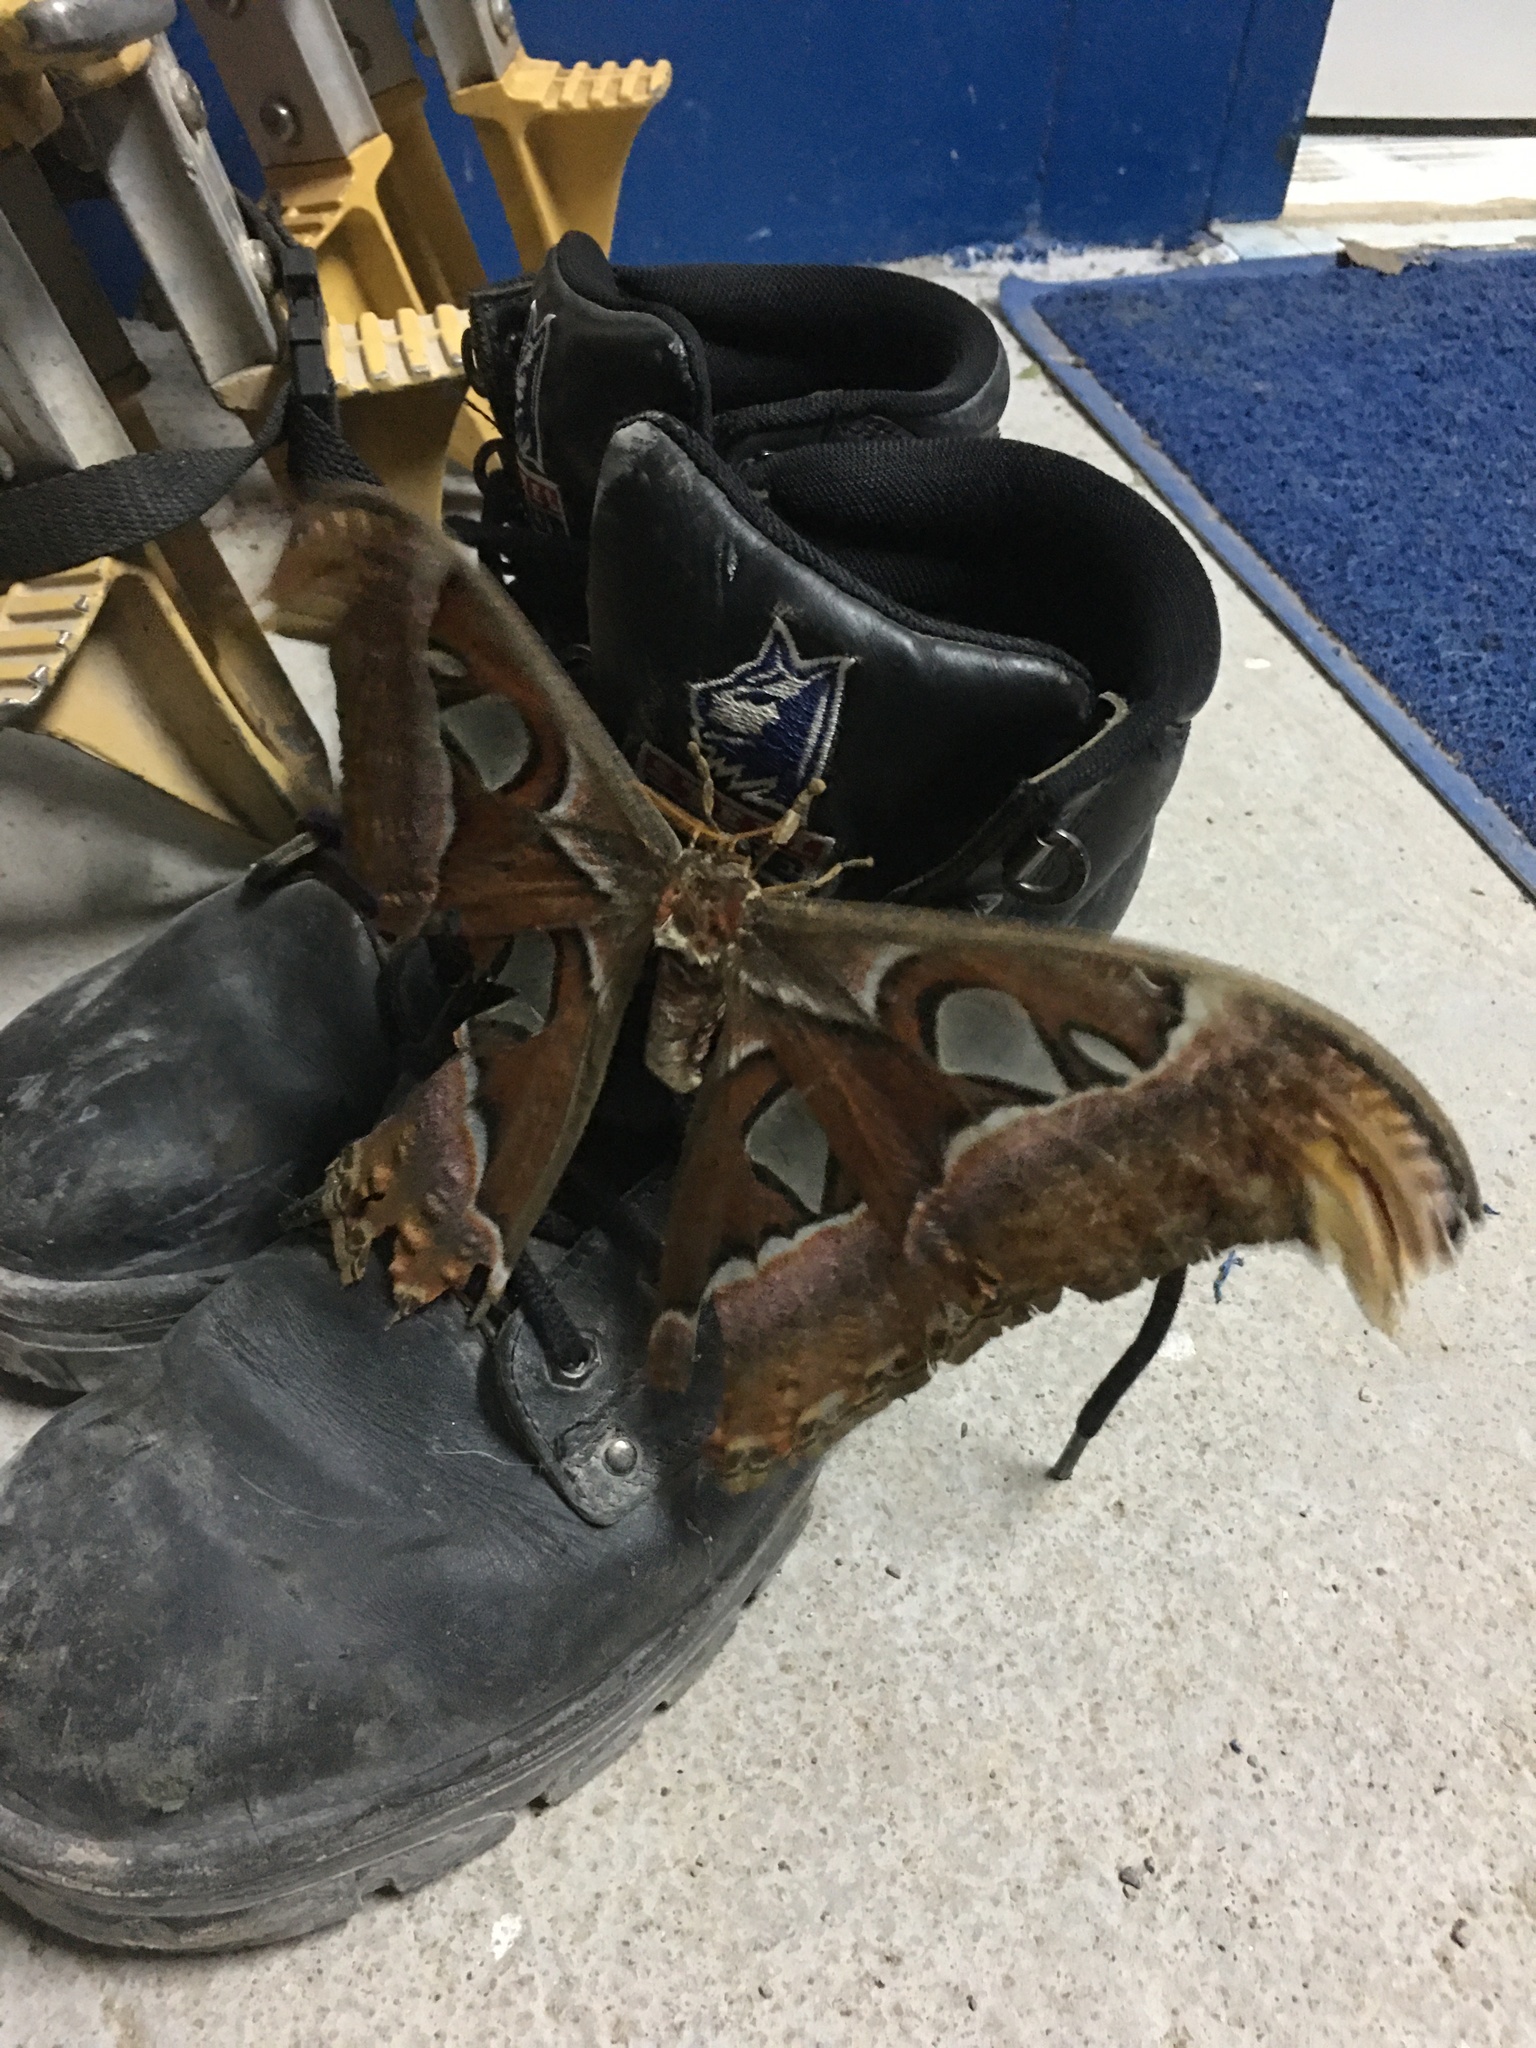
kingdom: Animalia
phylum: Arthropoda
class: Insecta
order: Lepidoptera
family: Saturniidae
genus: Attacus
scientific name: Attacus atlas
